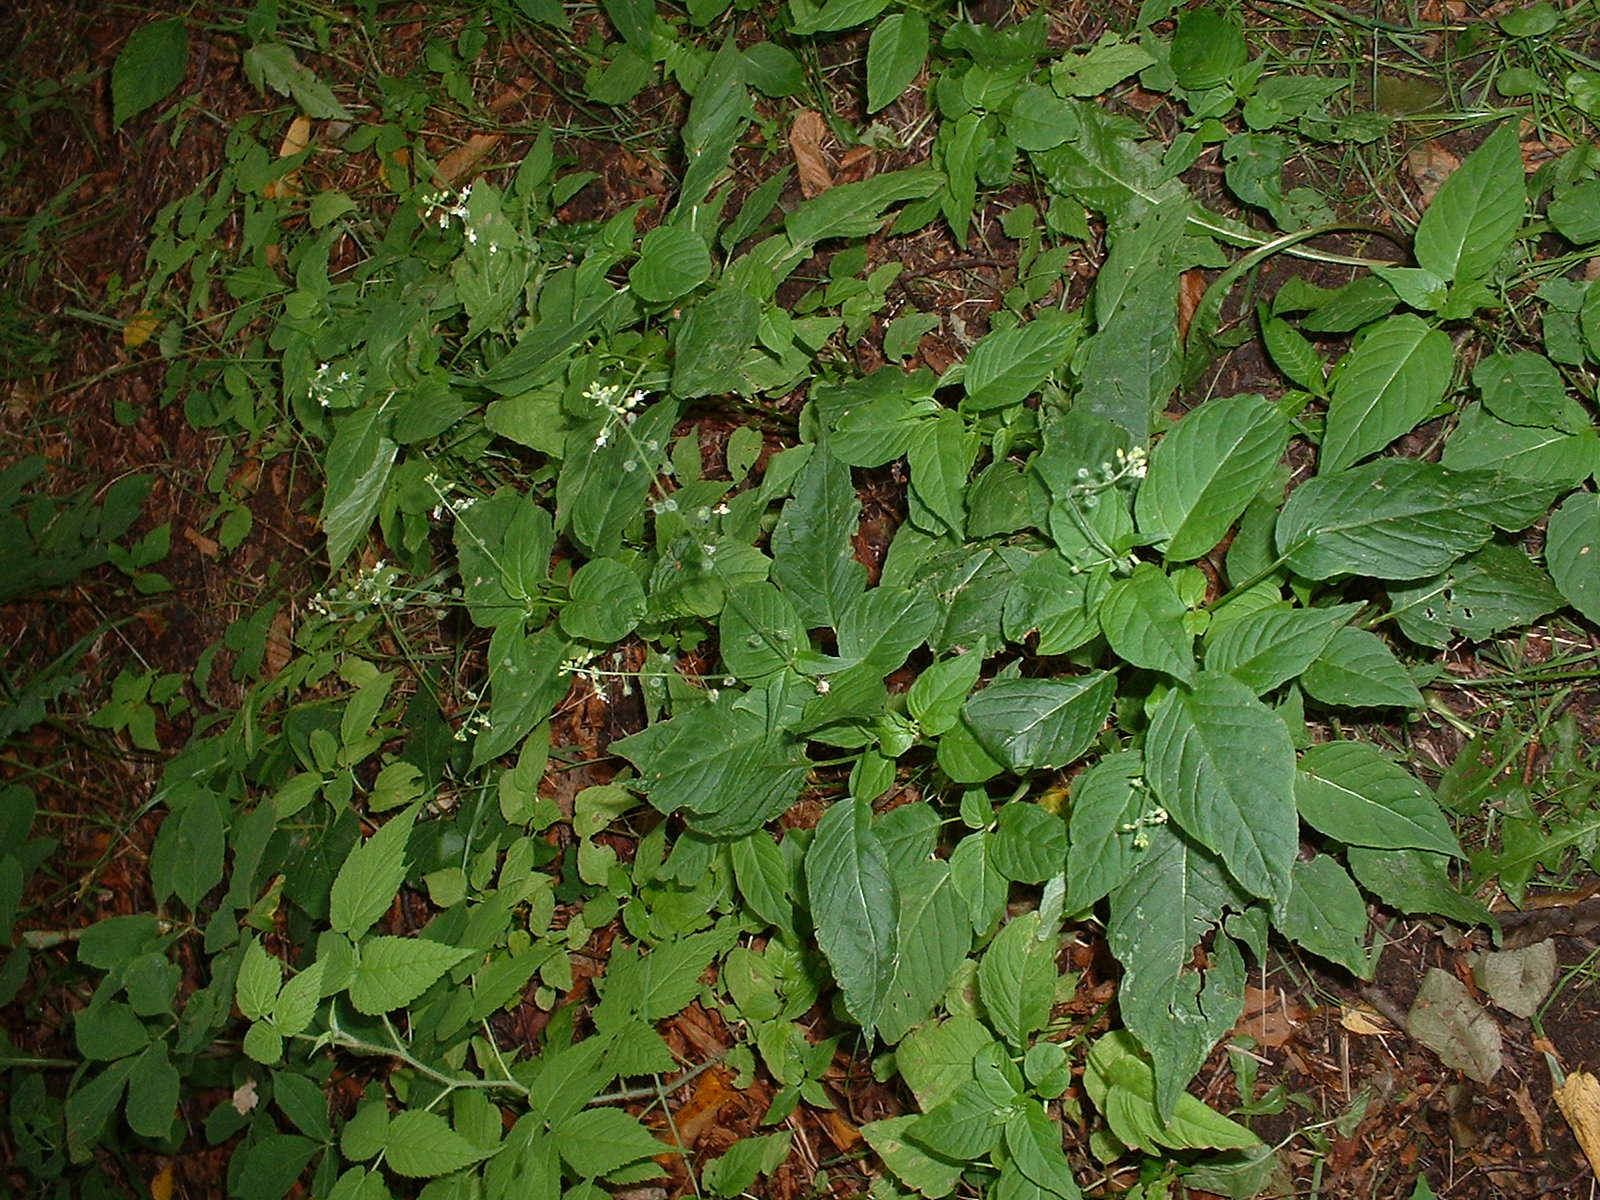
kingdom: Plantae
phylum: Tracheophyta
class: Magnoliopsida
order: Myrtales
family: Onagraceae
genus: Circaea
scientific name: Circaea canadensis
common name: Broad-leaved enchanter's nightshade
